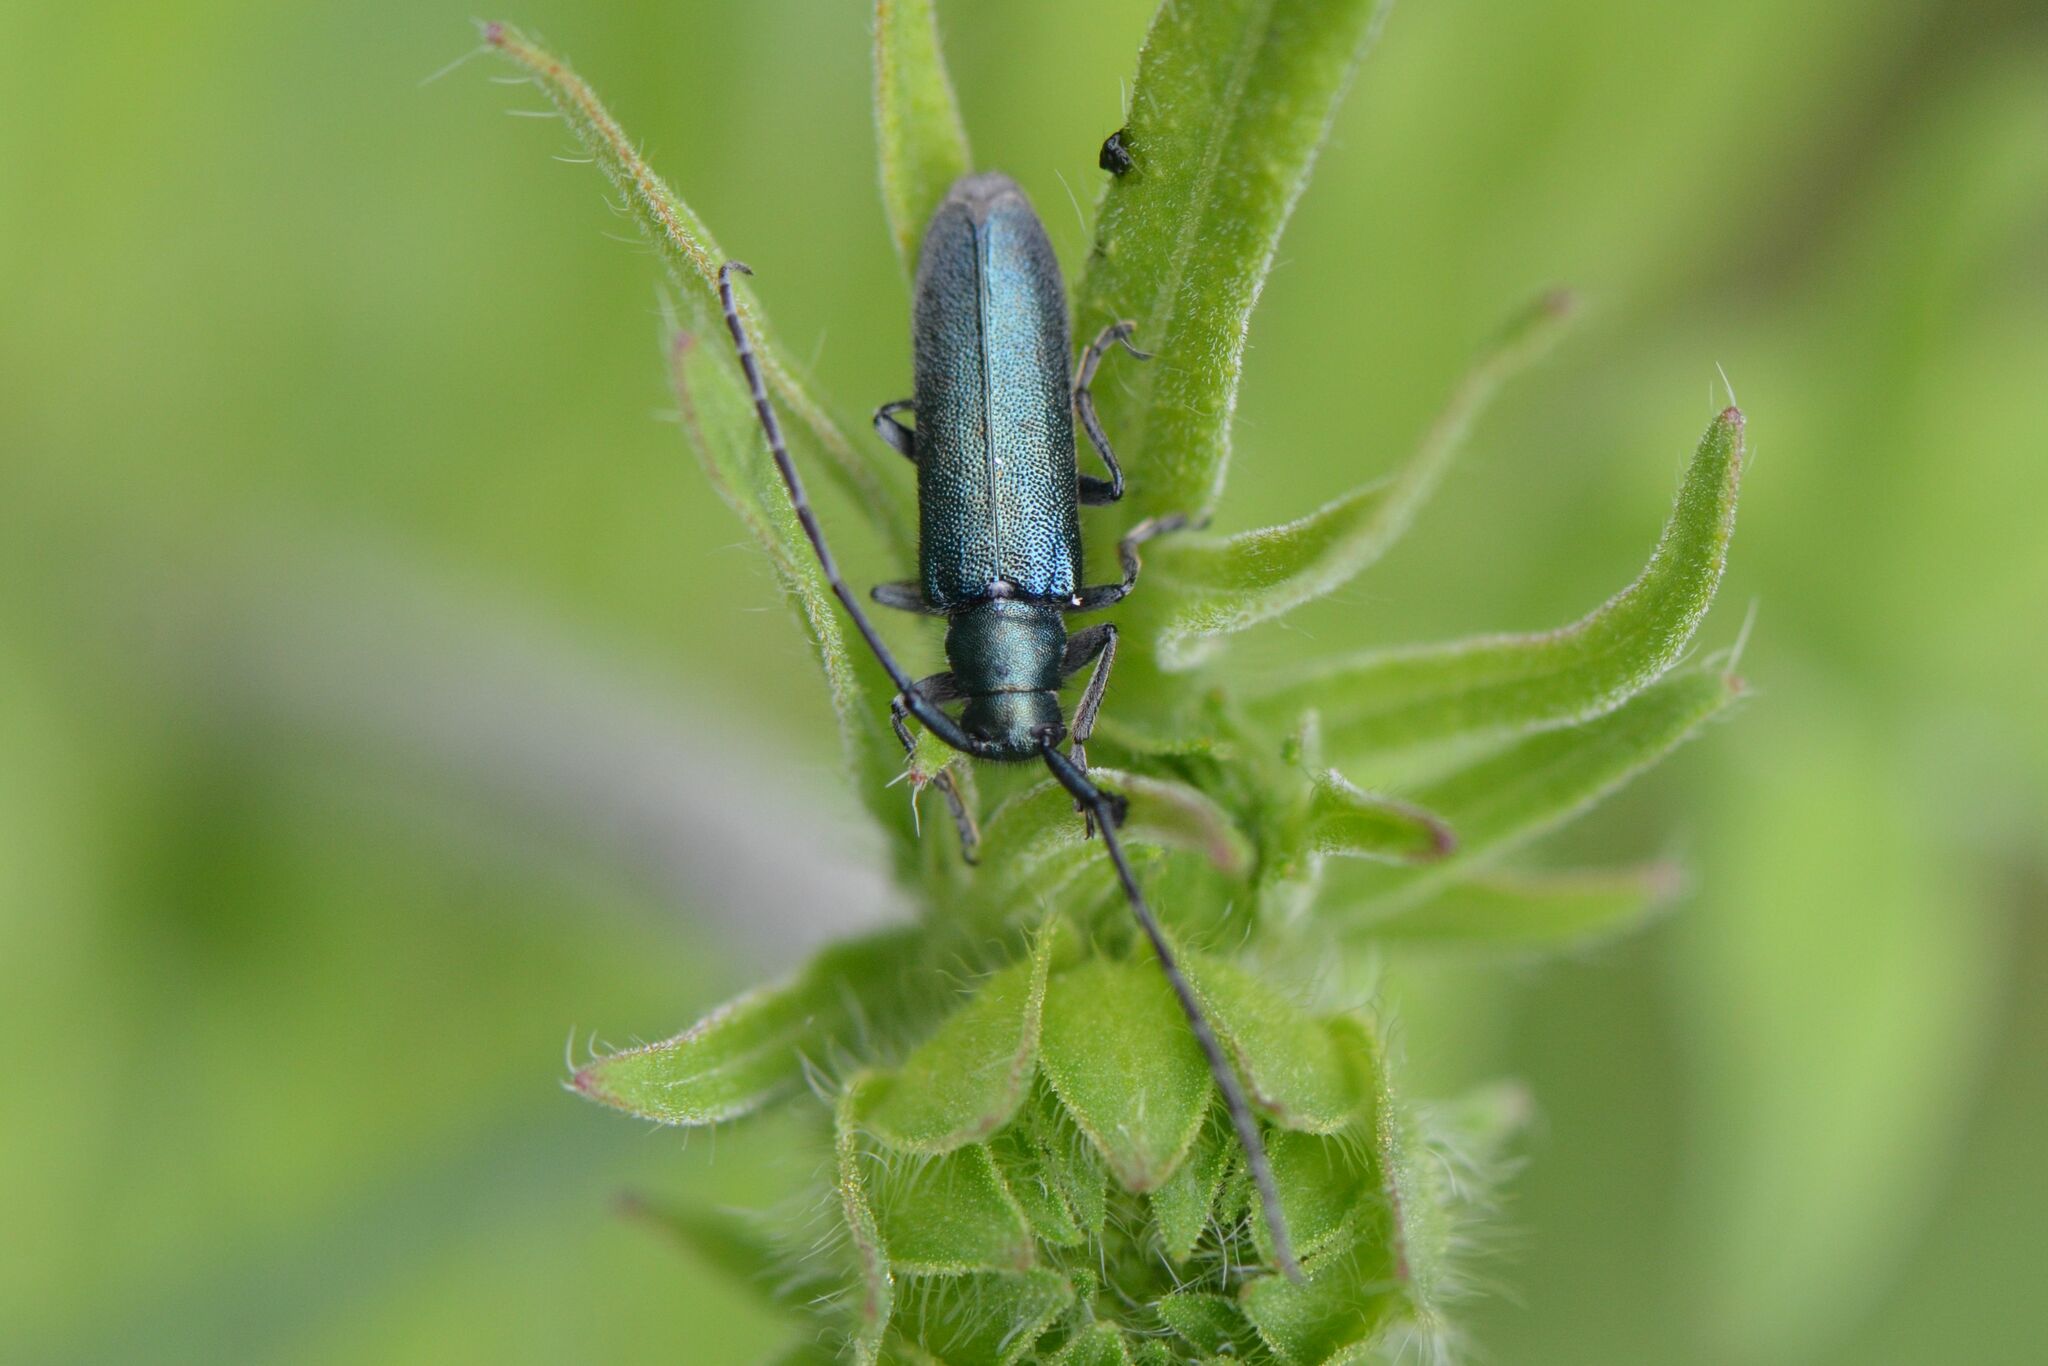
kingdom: Animalia
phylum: Arthropoda
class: Insecta
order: Coleoptera
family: Cerambycidae
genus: Agapanthia
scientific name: Agapanthia intermedia
